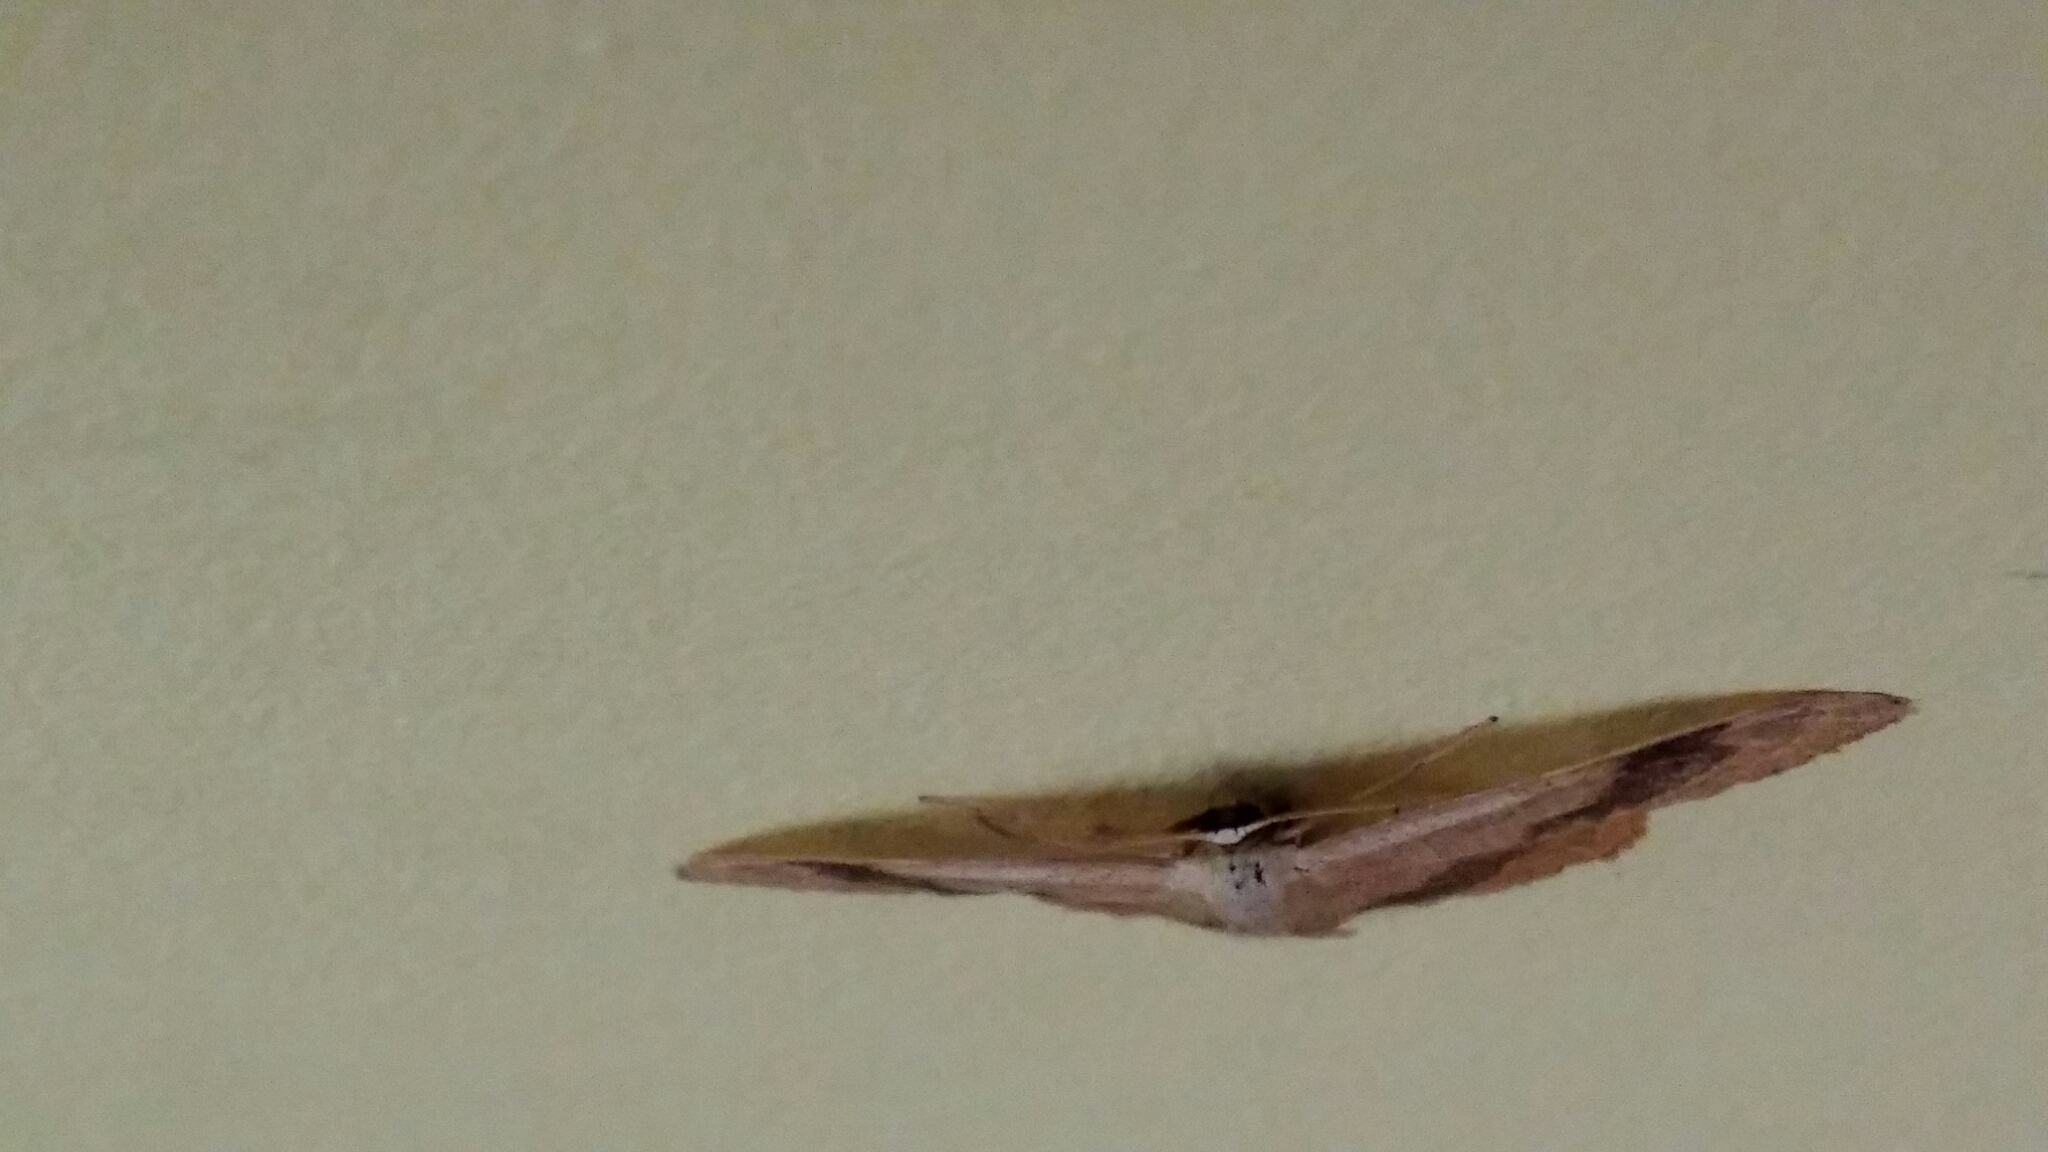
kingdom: Animalia
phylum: Arthropoda
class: Insecta
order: Lepidoptera
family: Geometridae
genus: Idaea
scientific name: Idaea aversata
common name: Riband wave
